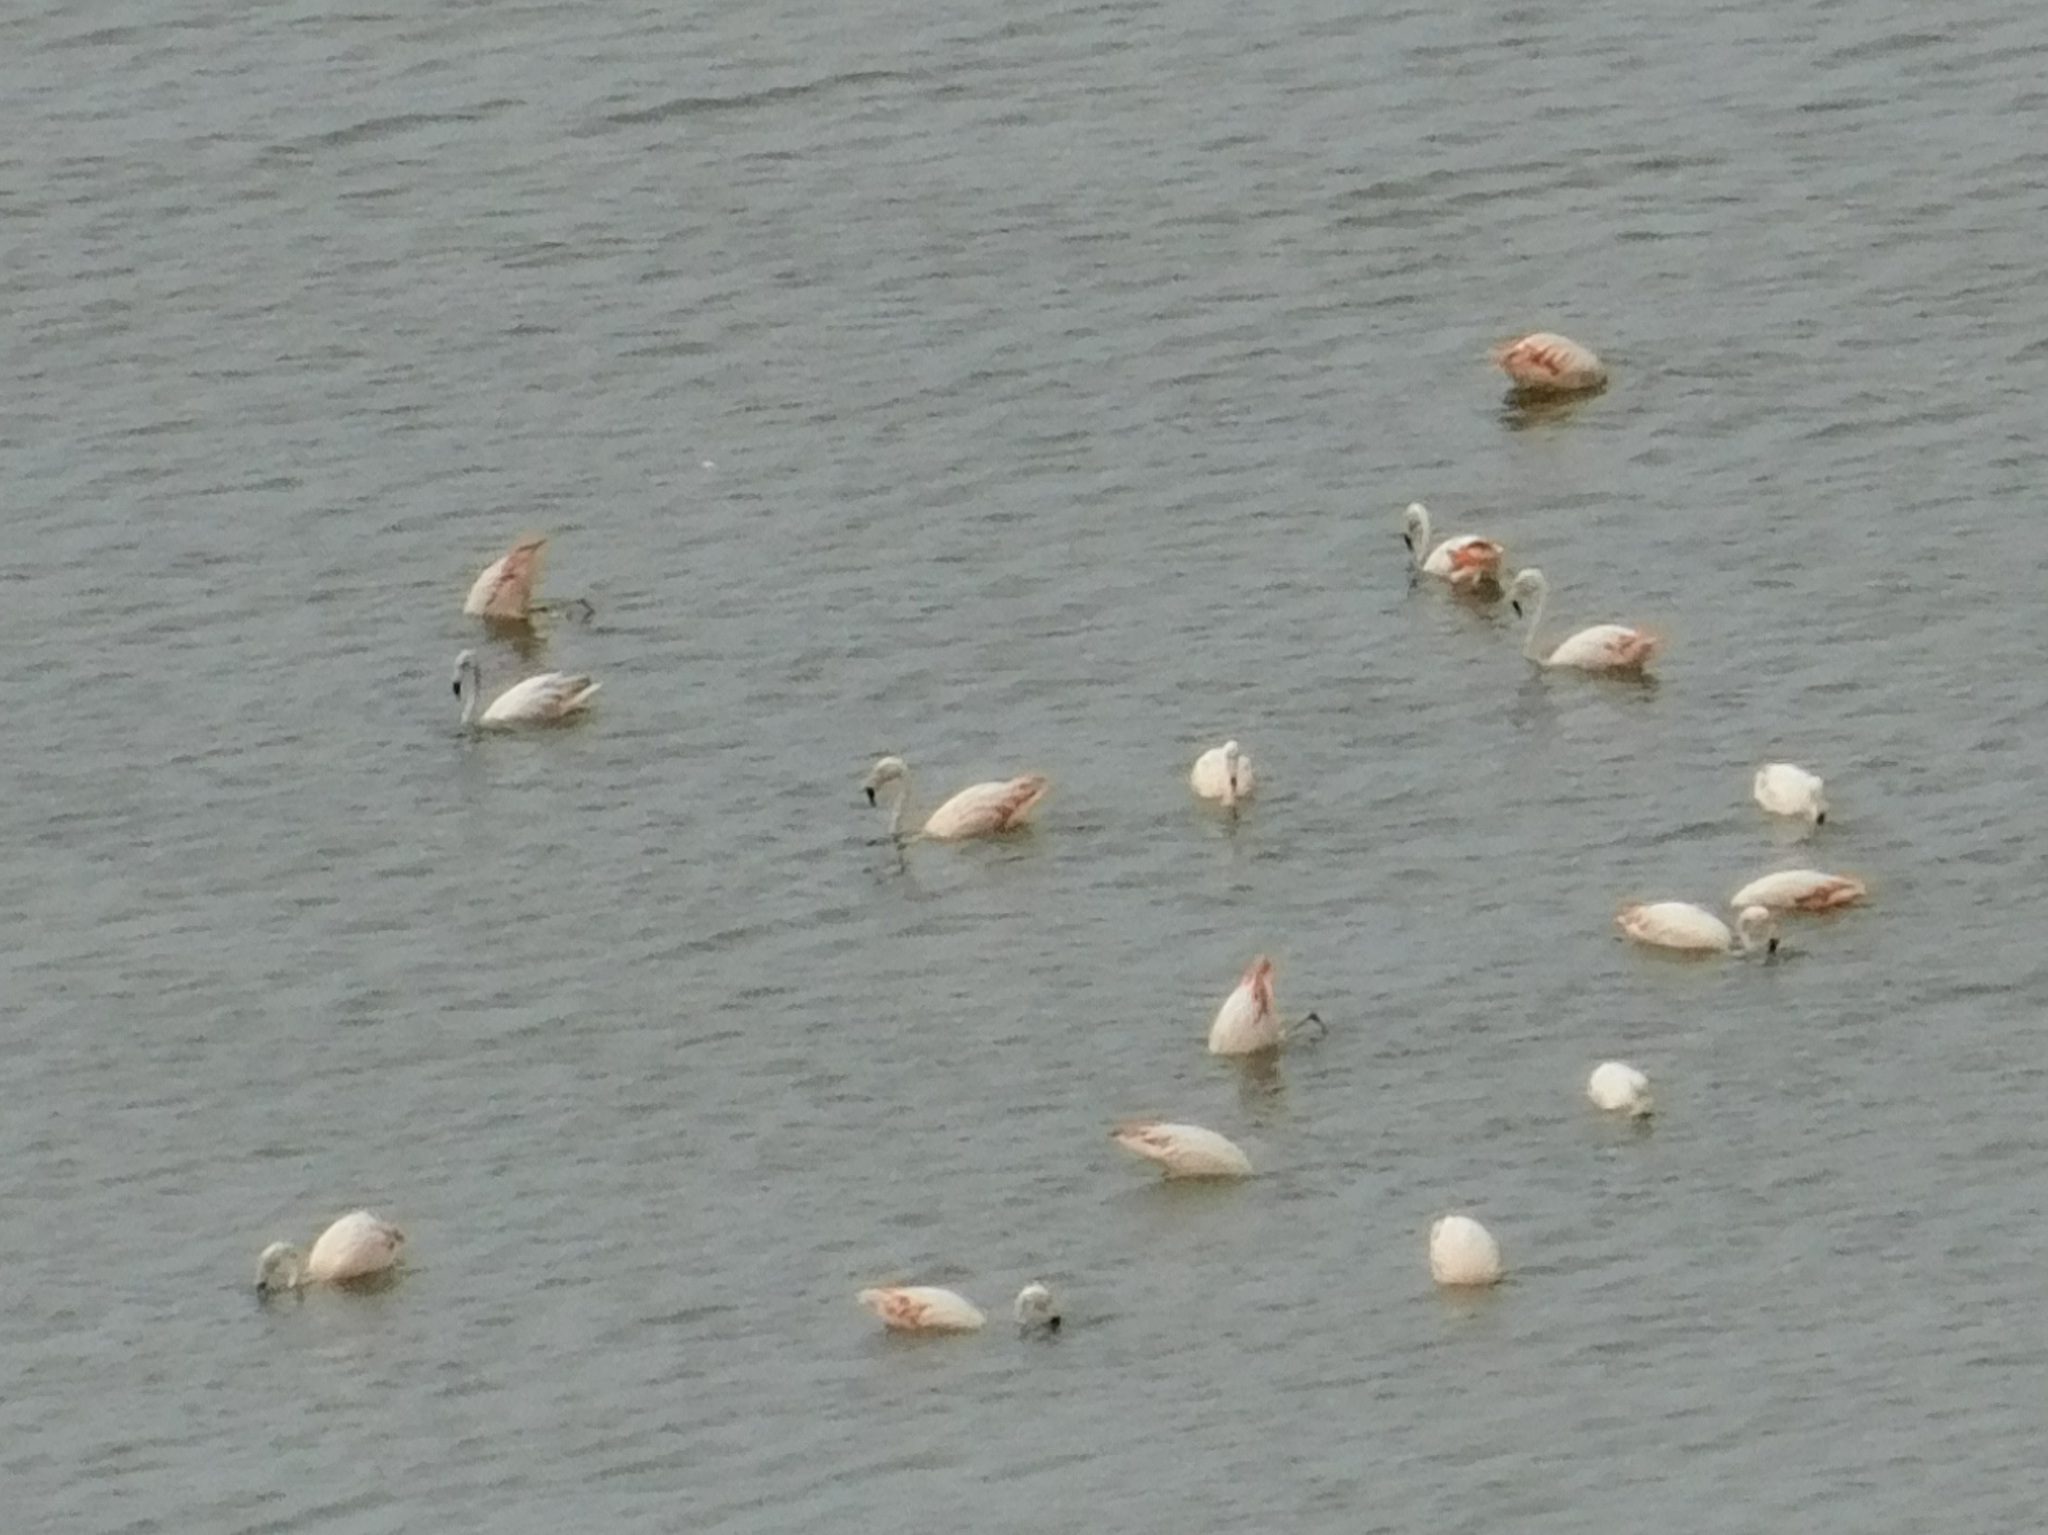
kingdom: Animalia
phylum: Chordata
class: Aves
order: Phoenicopteriformes
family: Phoenicopteridae
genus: Phoenicopterus
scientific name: Phoenicopterus chilensis
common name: Chilean flamingo
